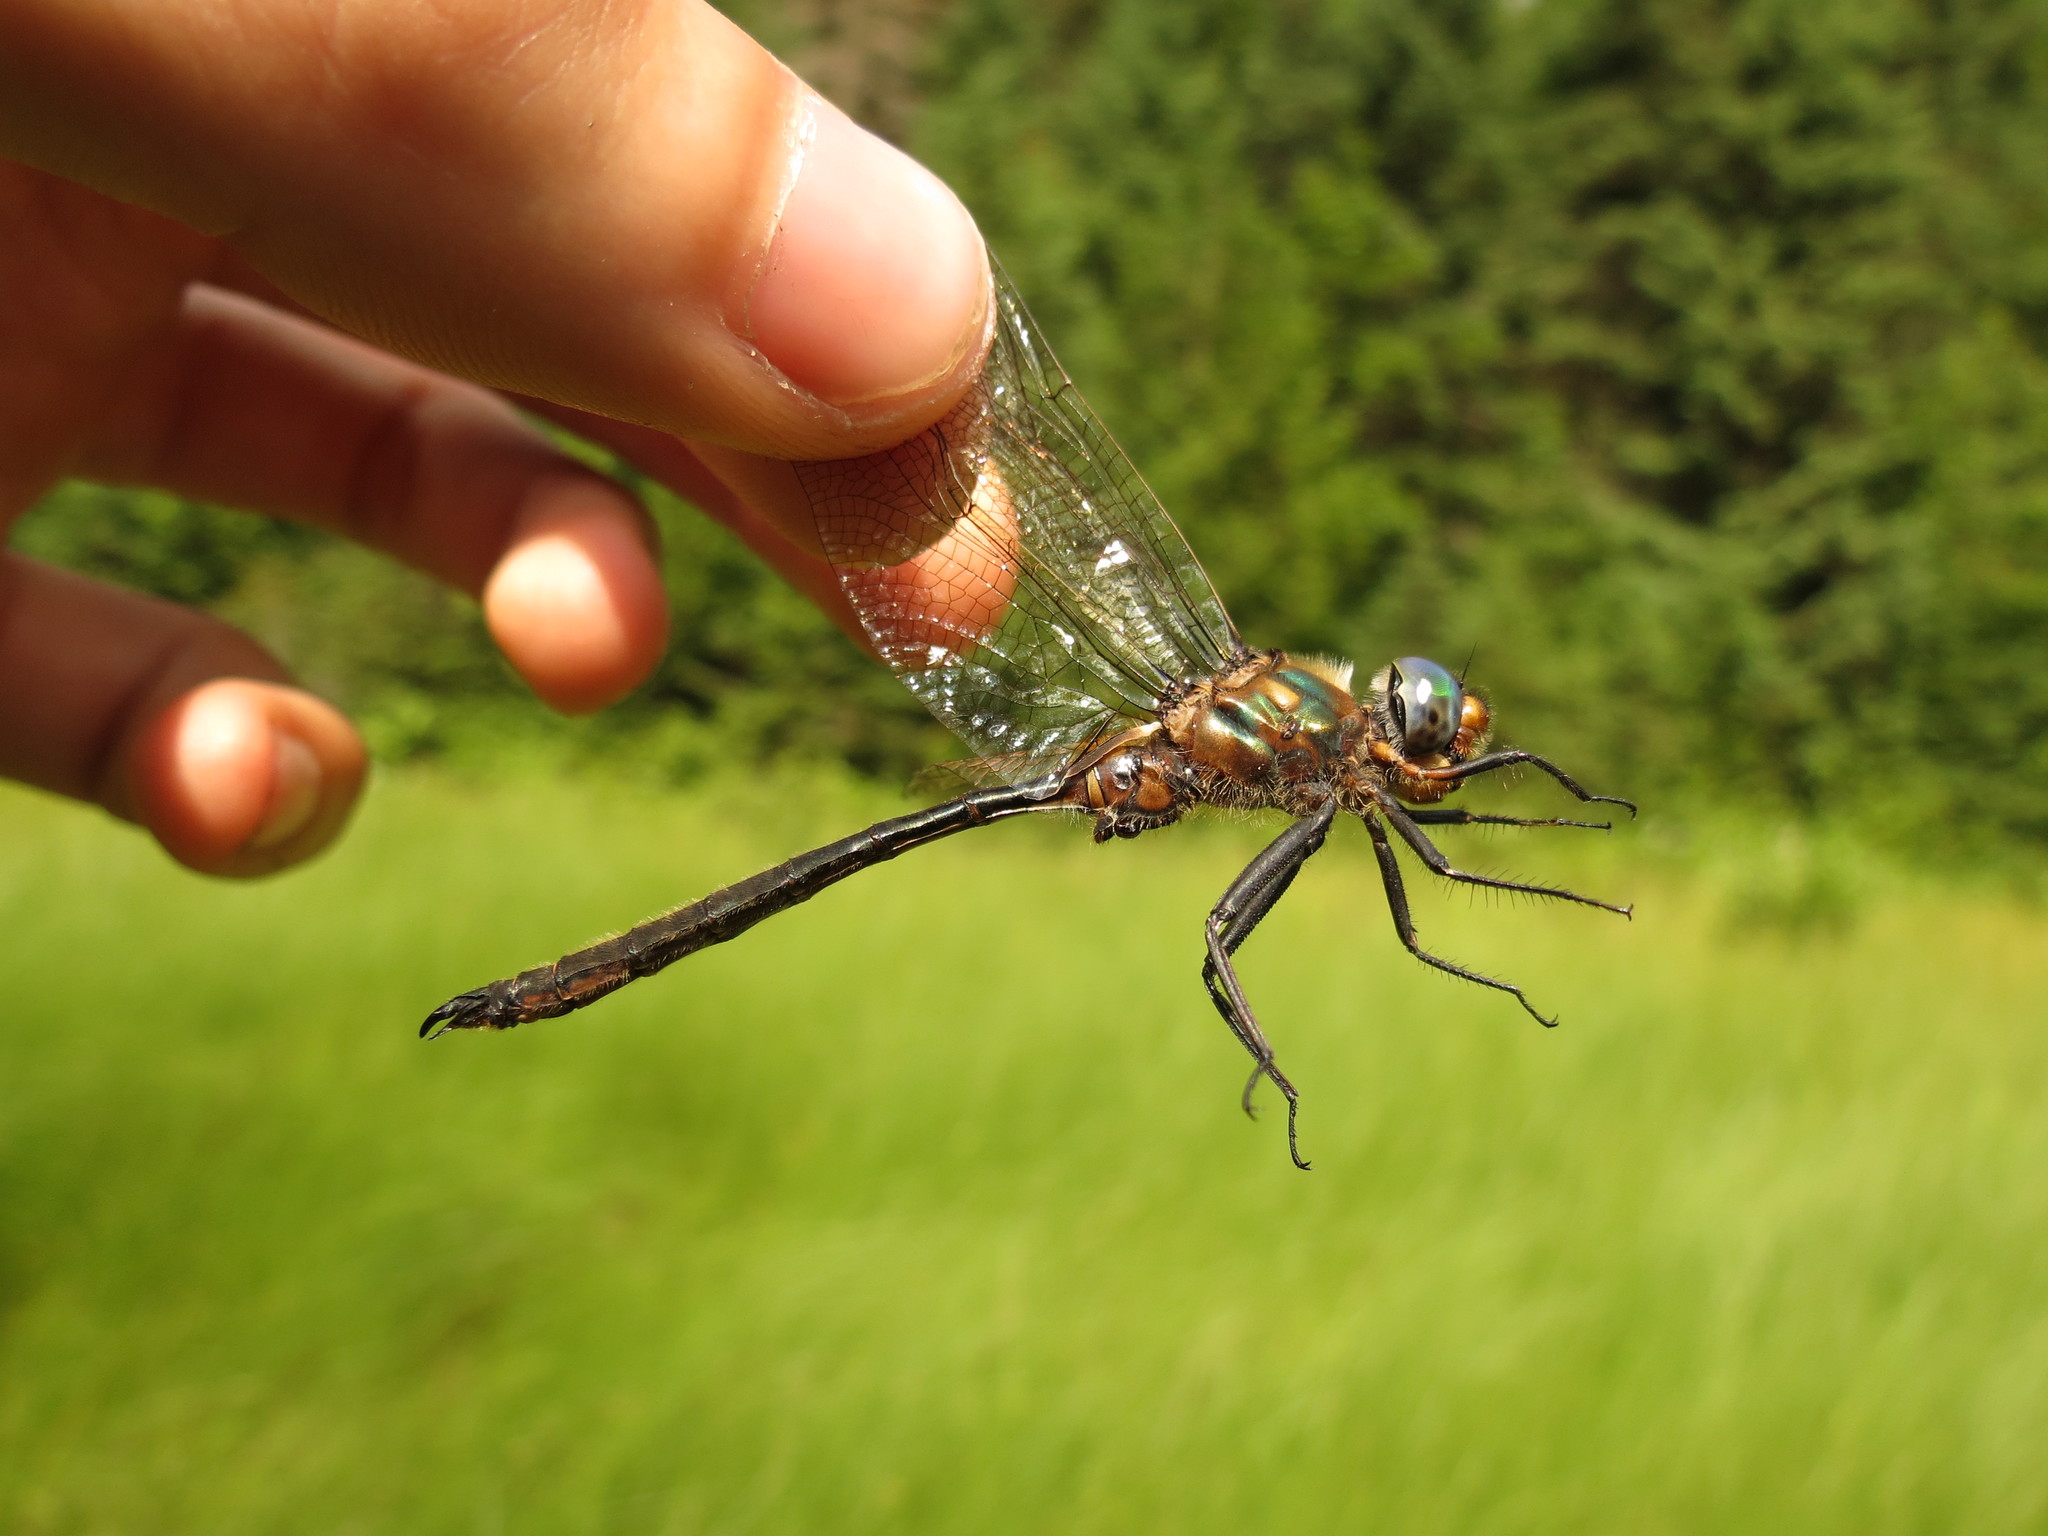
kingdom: Animalia
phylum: Arthropoda
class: Insecta
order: Odonata
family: Corduliidae
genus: Somatochlora
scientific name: Somatochlora kennedyi
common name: Kennedy's emerald
